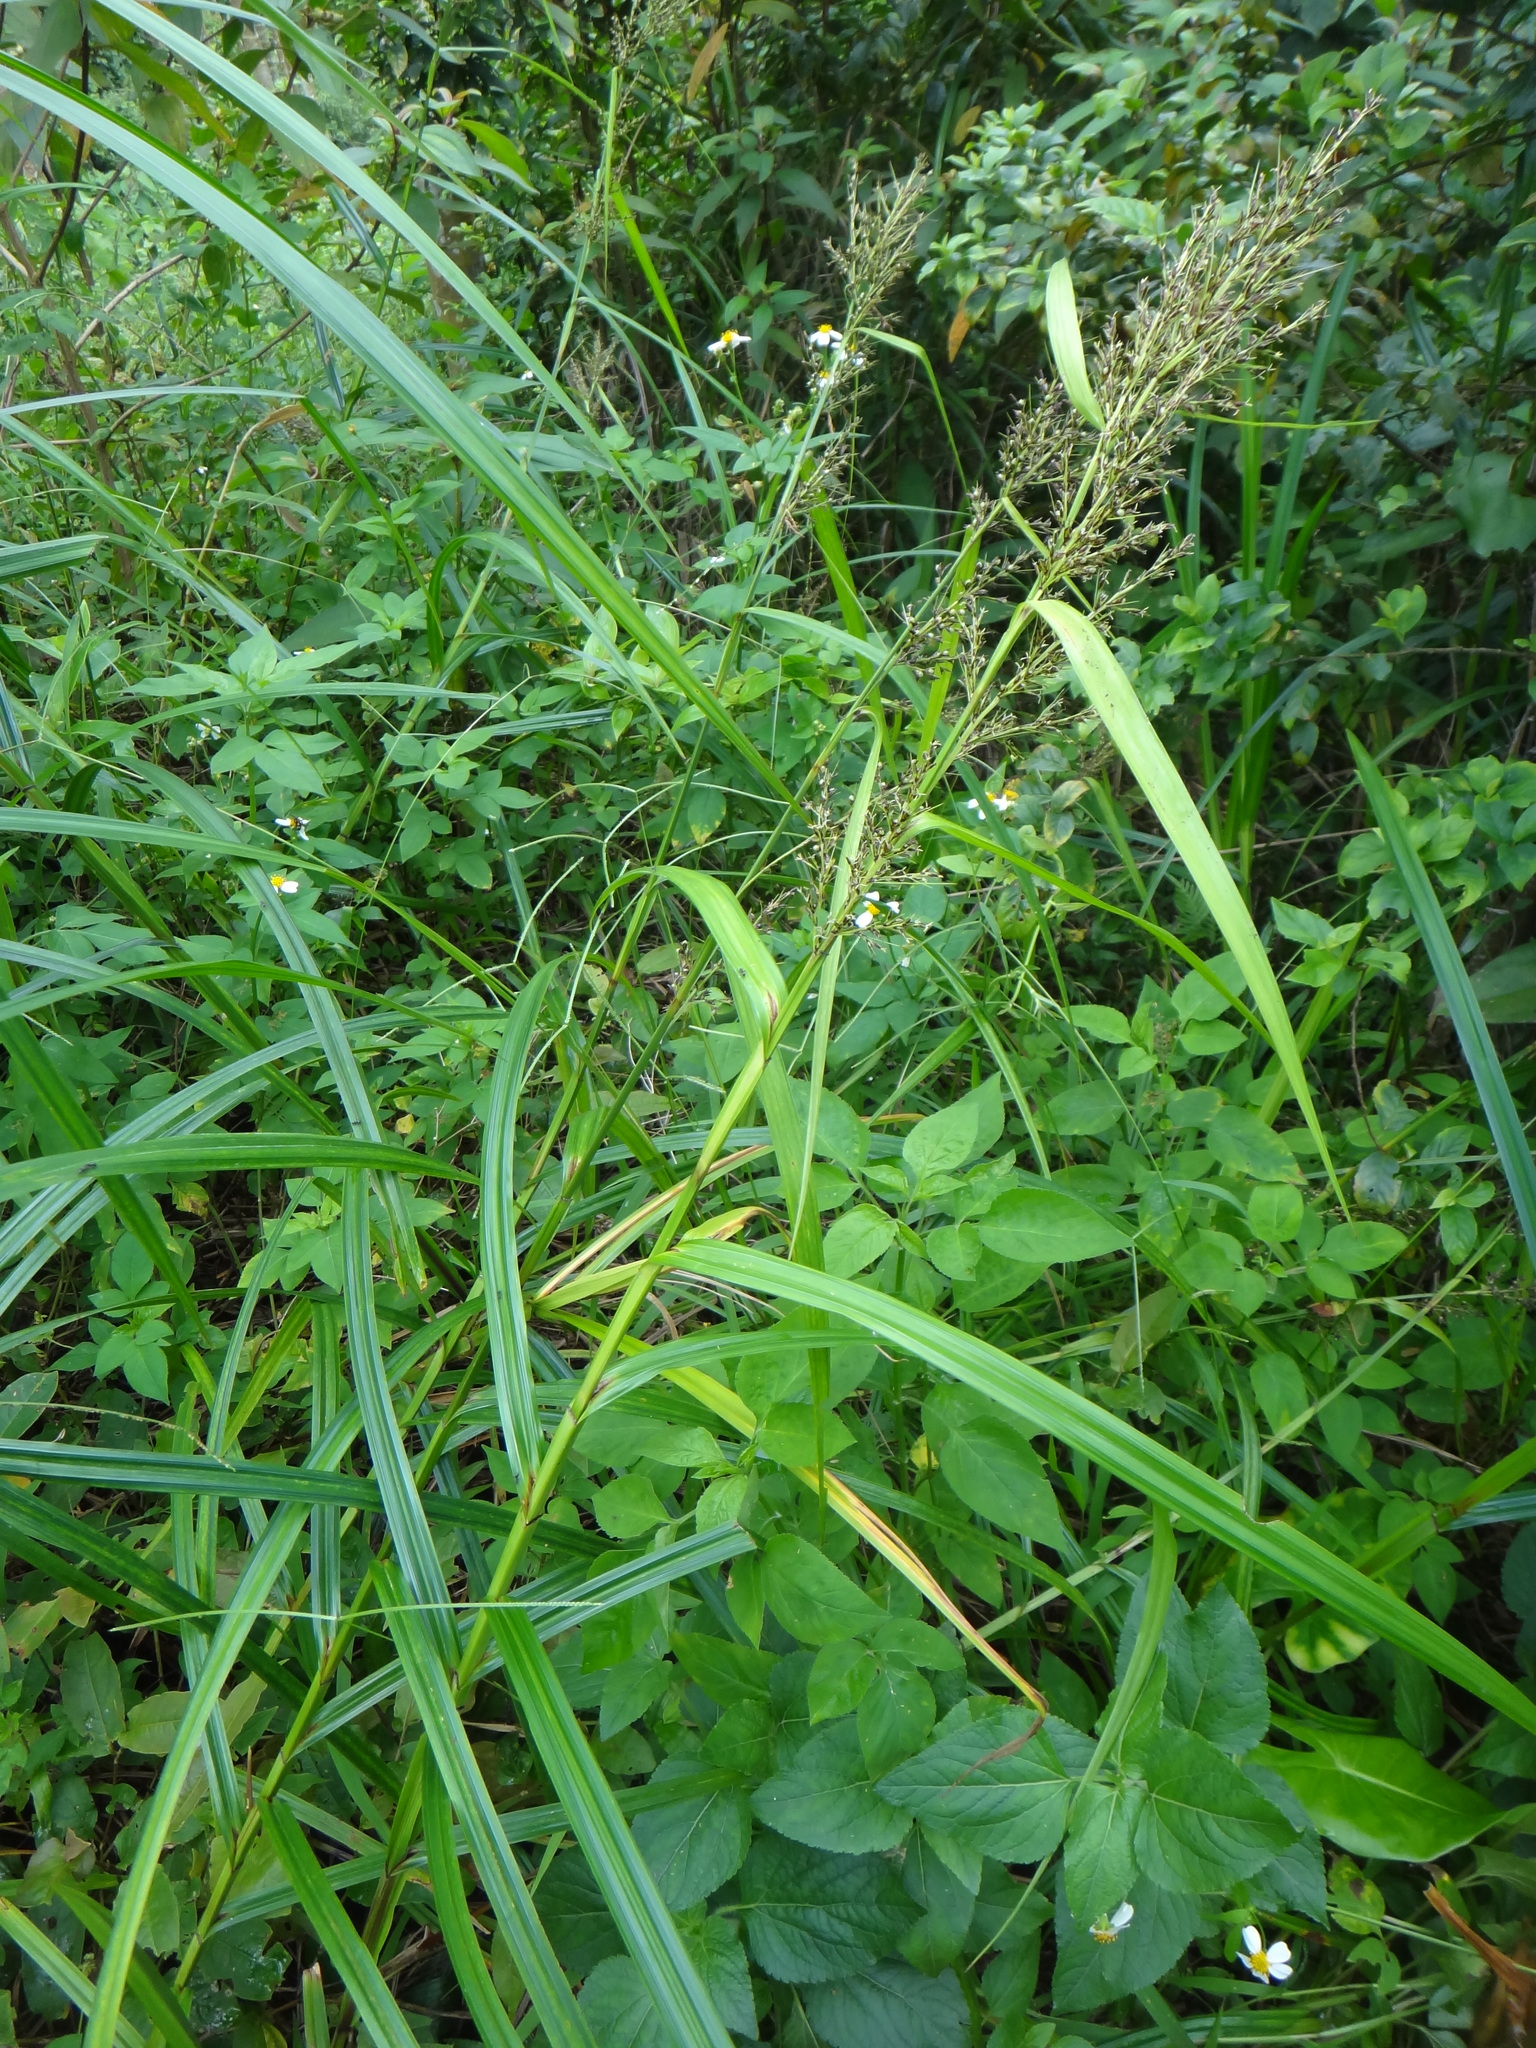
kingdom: Plantae
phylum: Tracheophyta
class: Liliopsida
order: Poales
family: Cyperaceae
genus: Scleria
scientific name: Scleria terrestris
